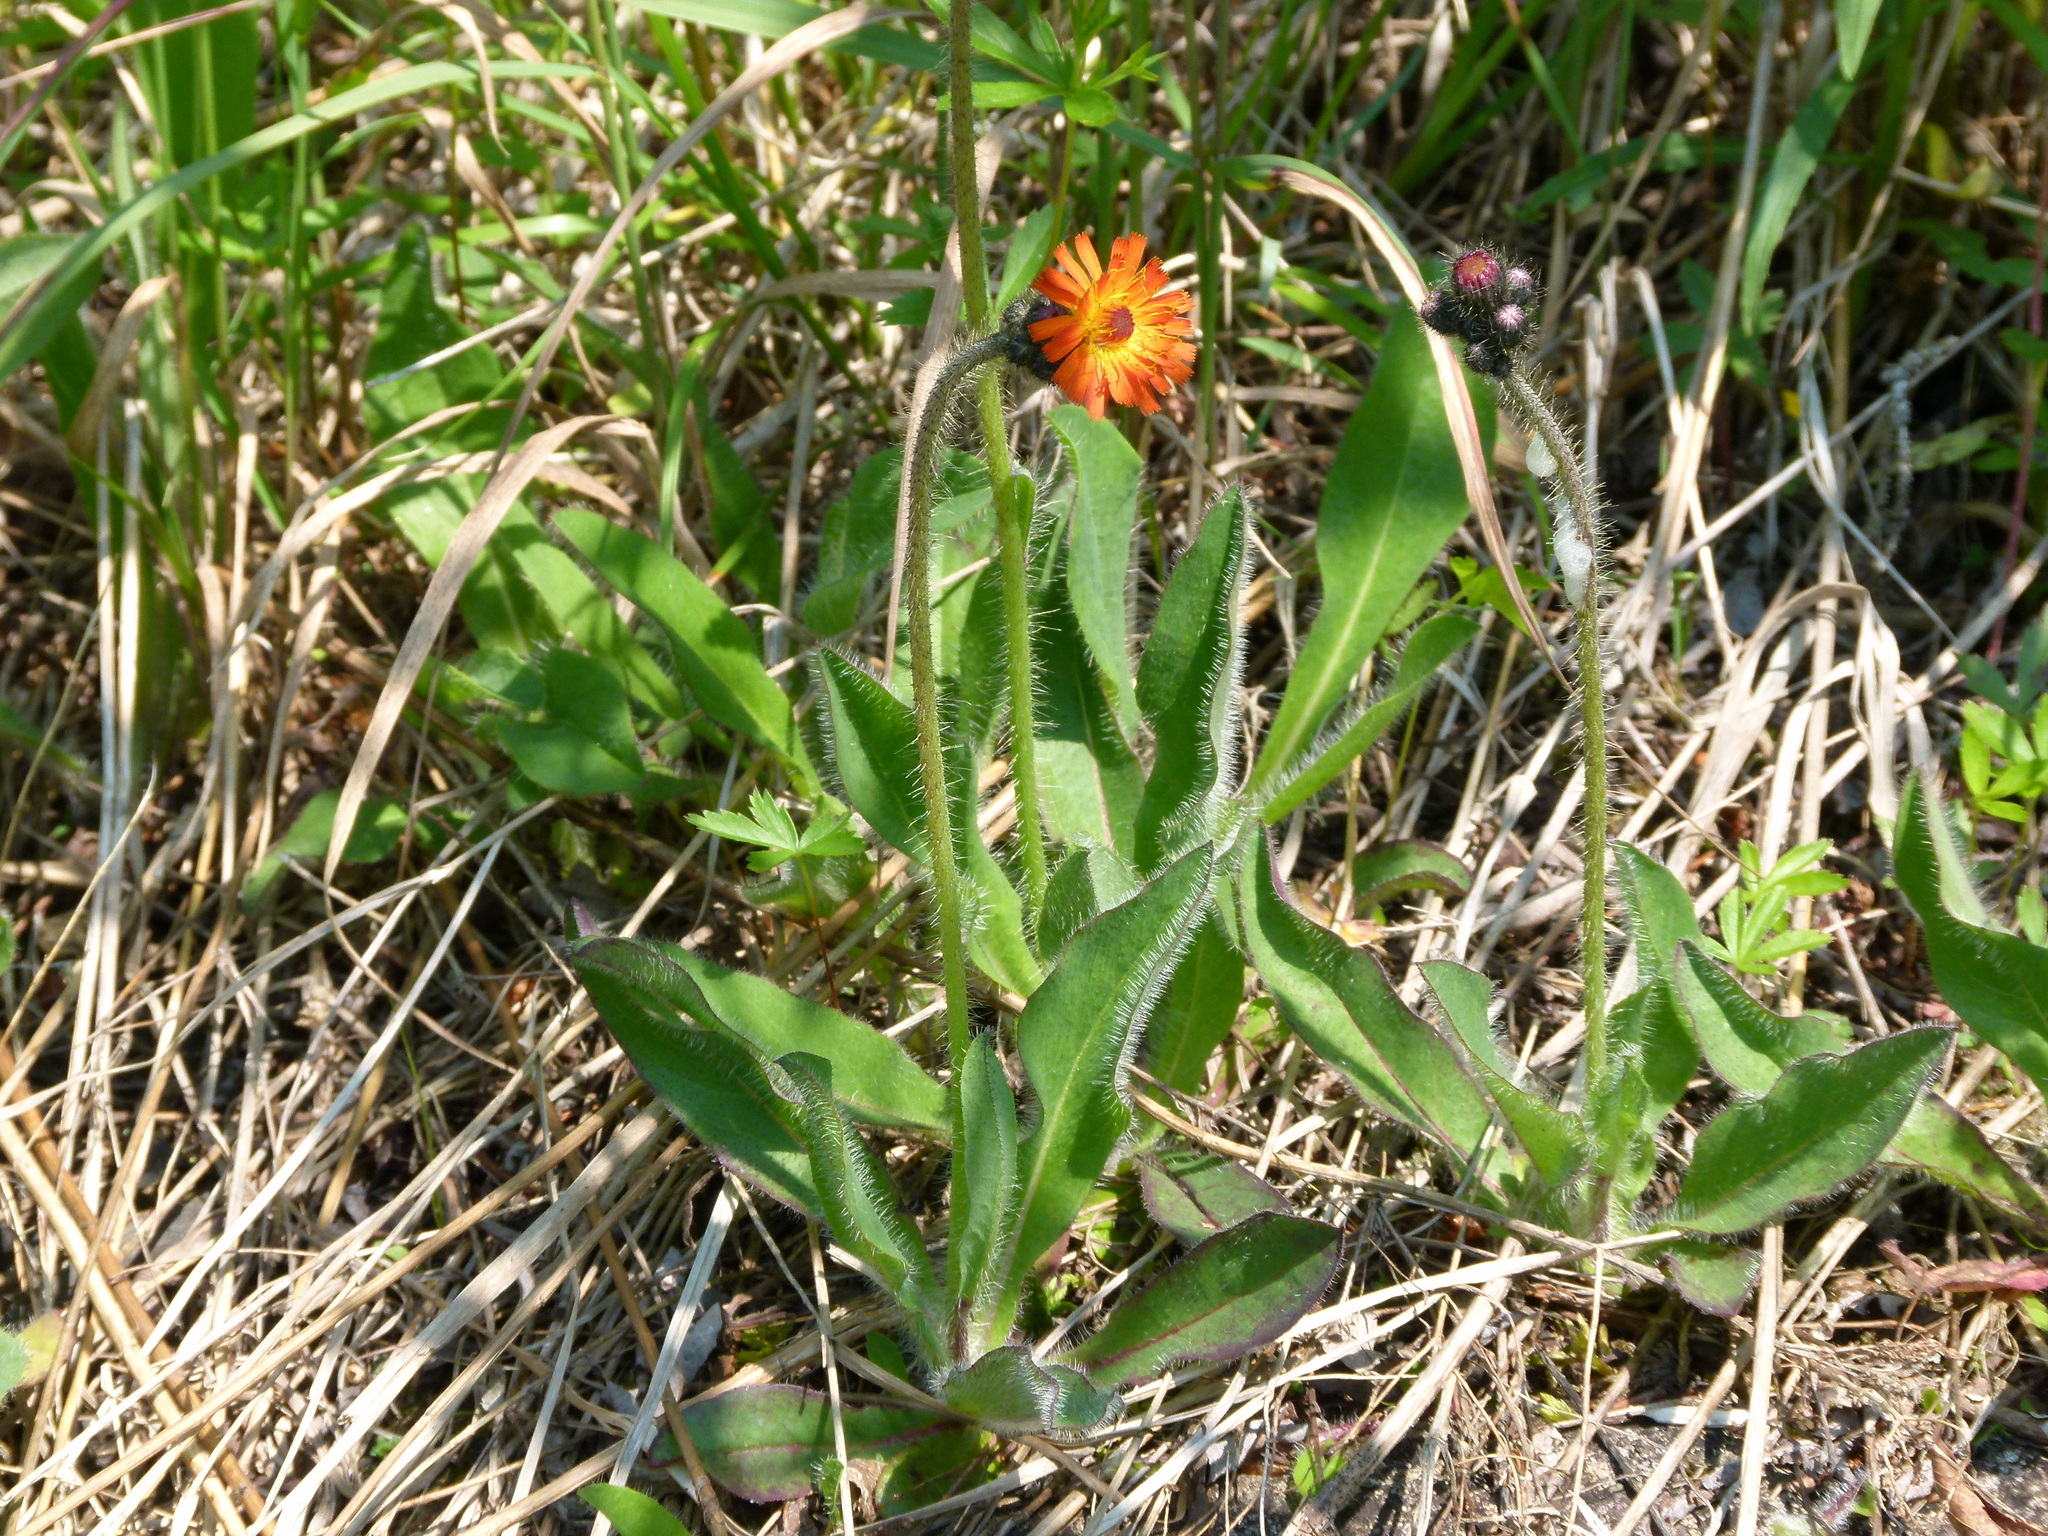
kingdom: Plantae
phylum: Tracheophyta
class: Magnoliopsida
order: Asterales
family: Asteraceae
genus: Pilosella
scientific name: Pilosella aurantiaca
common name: Fox-and-cubs
